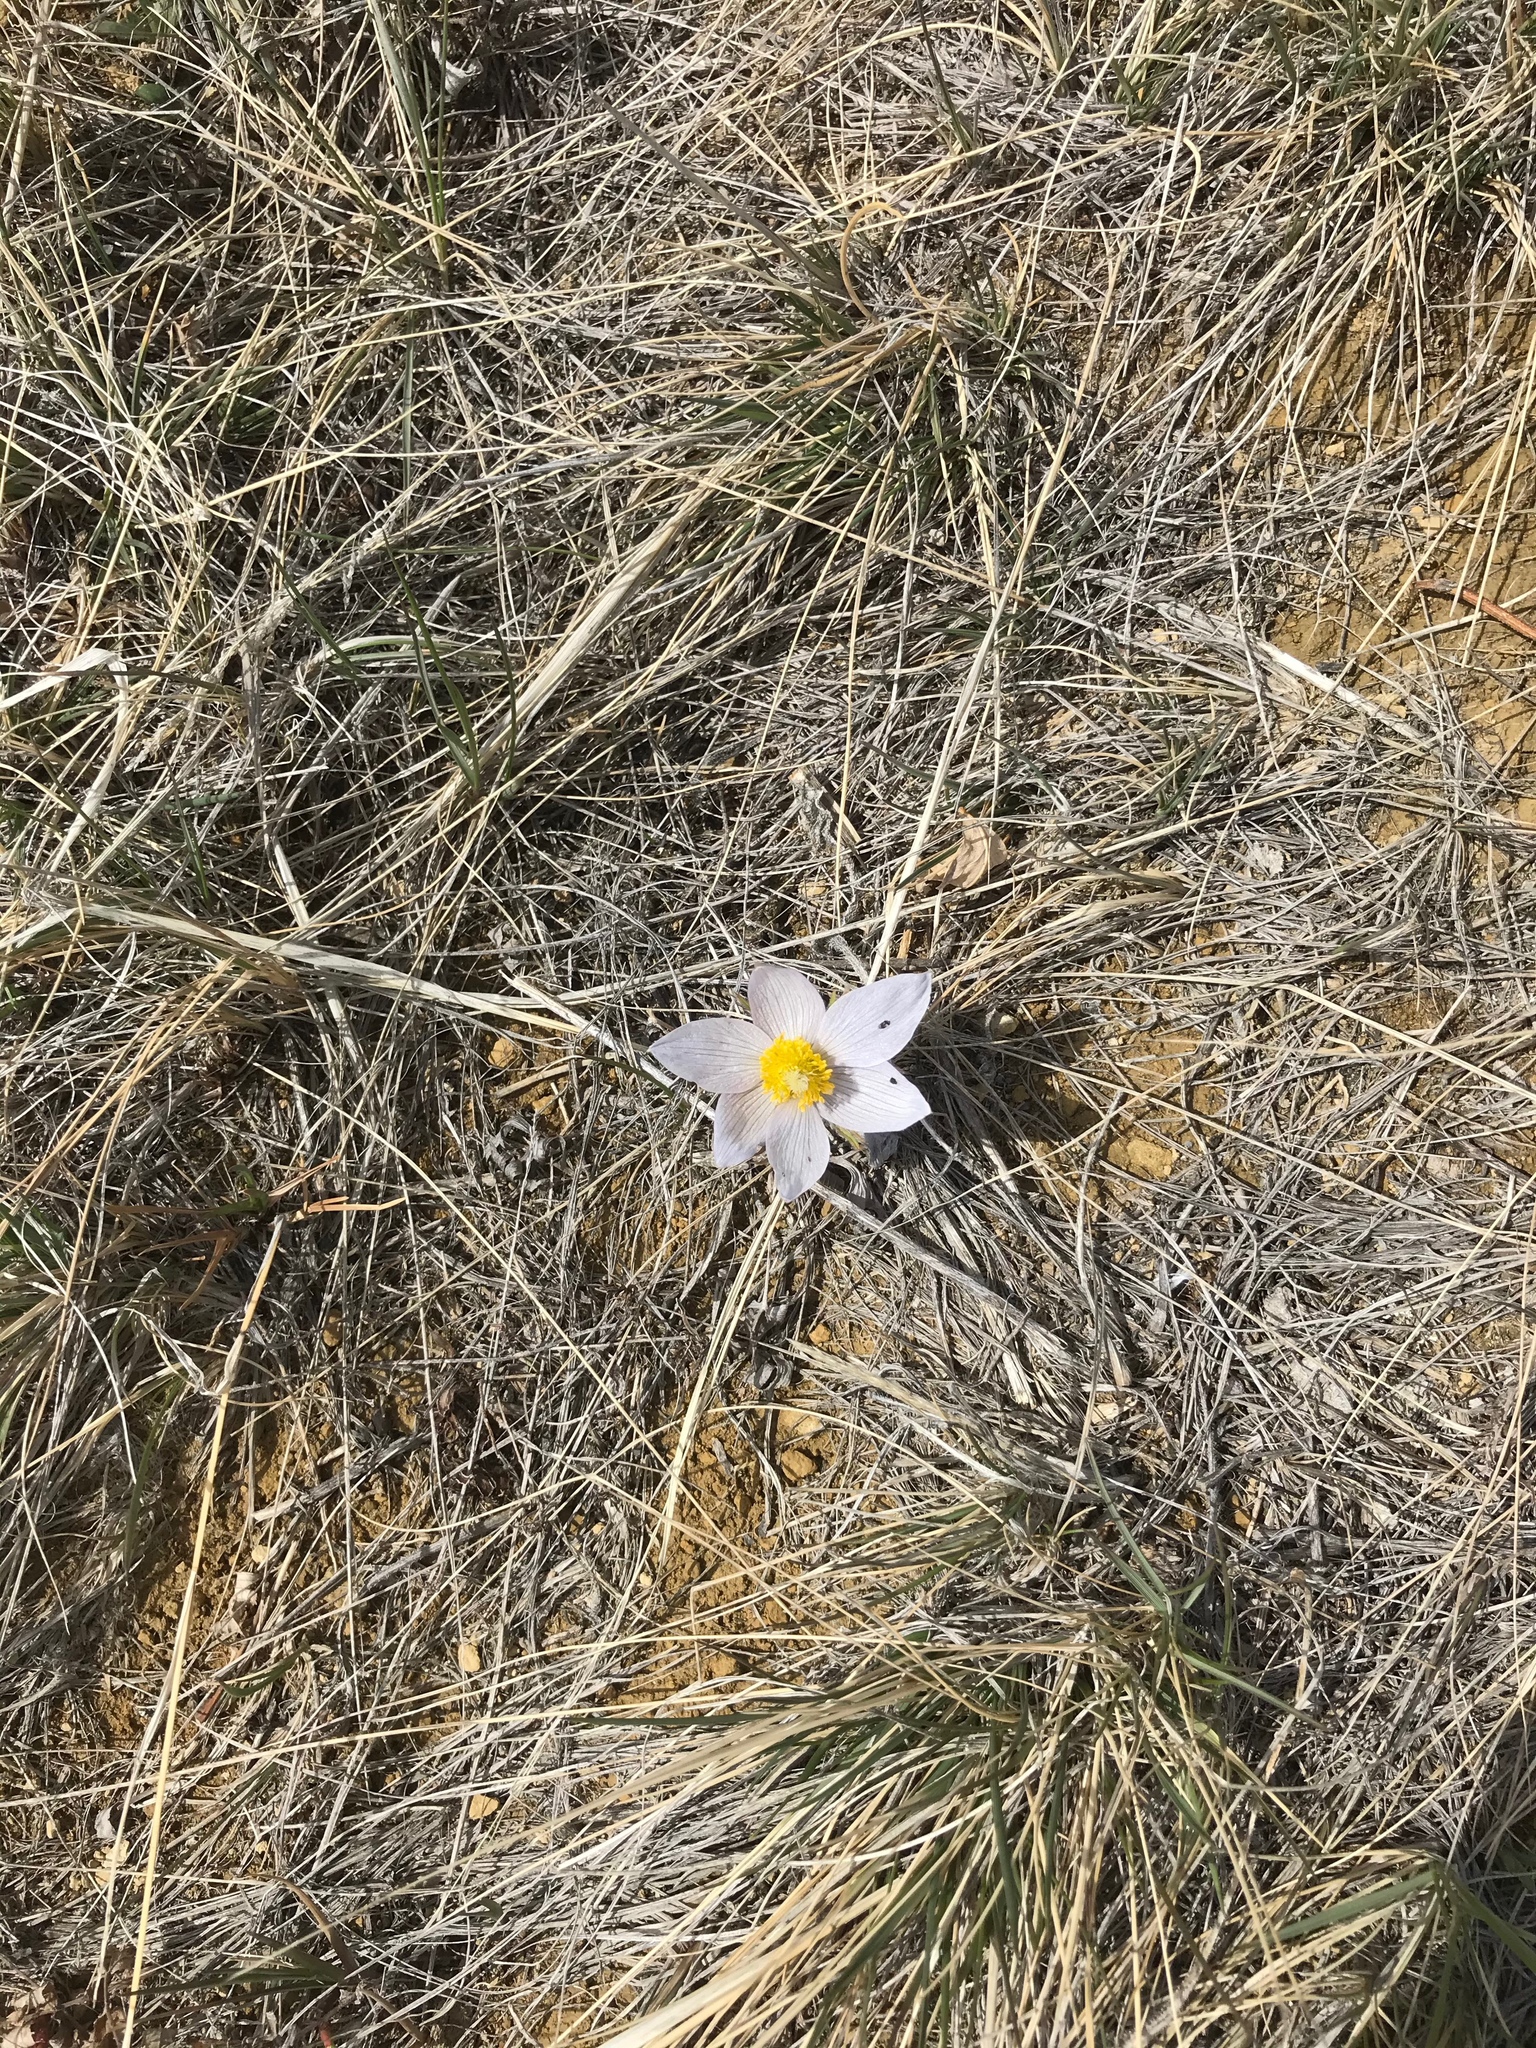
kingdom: Plantae
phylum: Tracheophyta
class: Magnoliopsida
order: Ranunculales
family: Ranunculaceae
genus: Pulsatilla
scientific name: Pulsatilla nuttalliana
